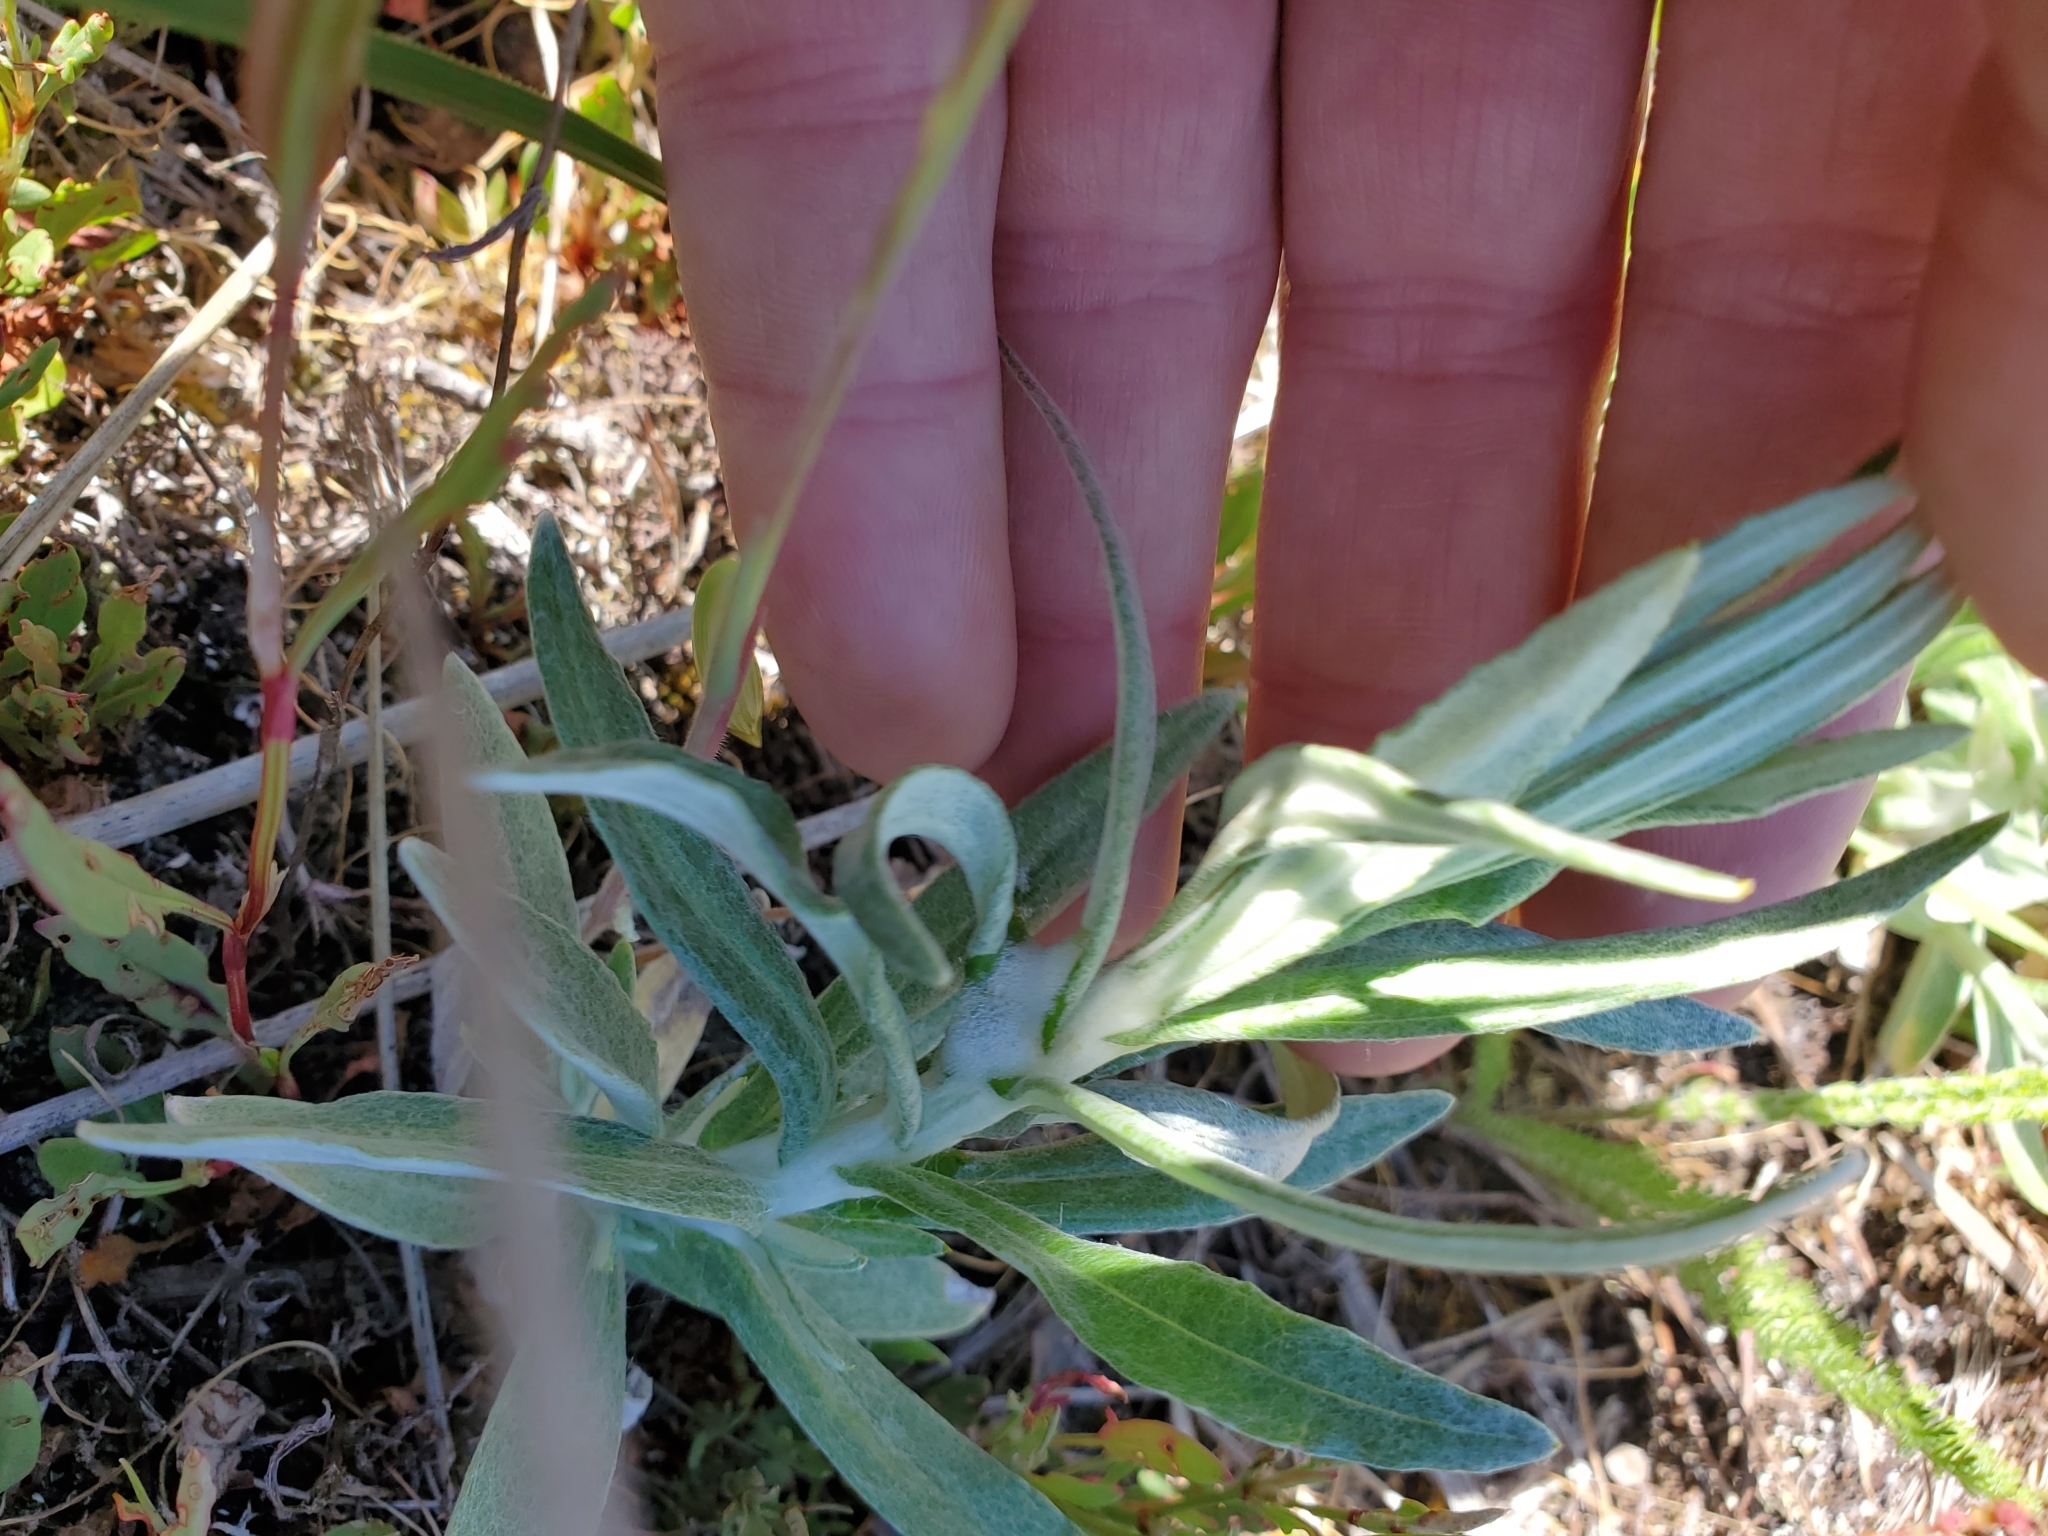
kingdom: Plantae
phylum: Tracheophyta
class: Magnoliopsida
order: Asterales
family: Asteraceae
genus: Anaphalis
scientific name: Anaphalis margaritacea
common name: Pearly everlasting
